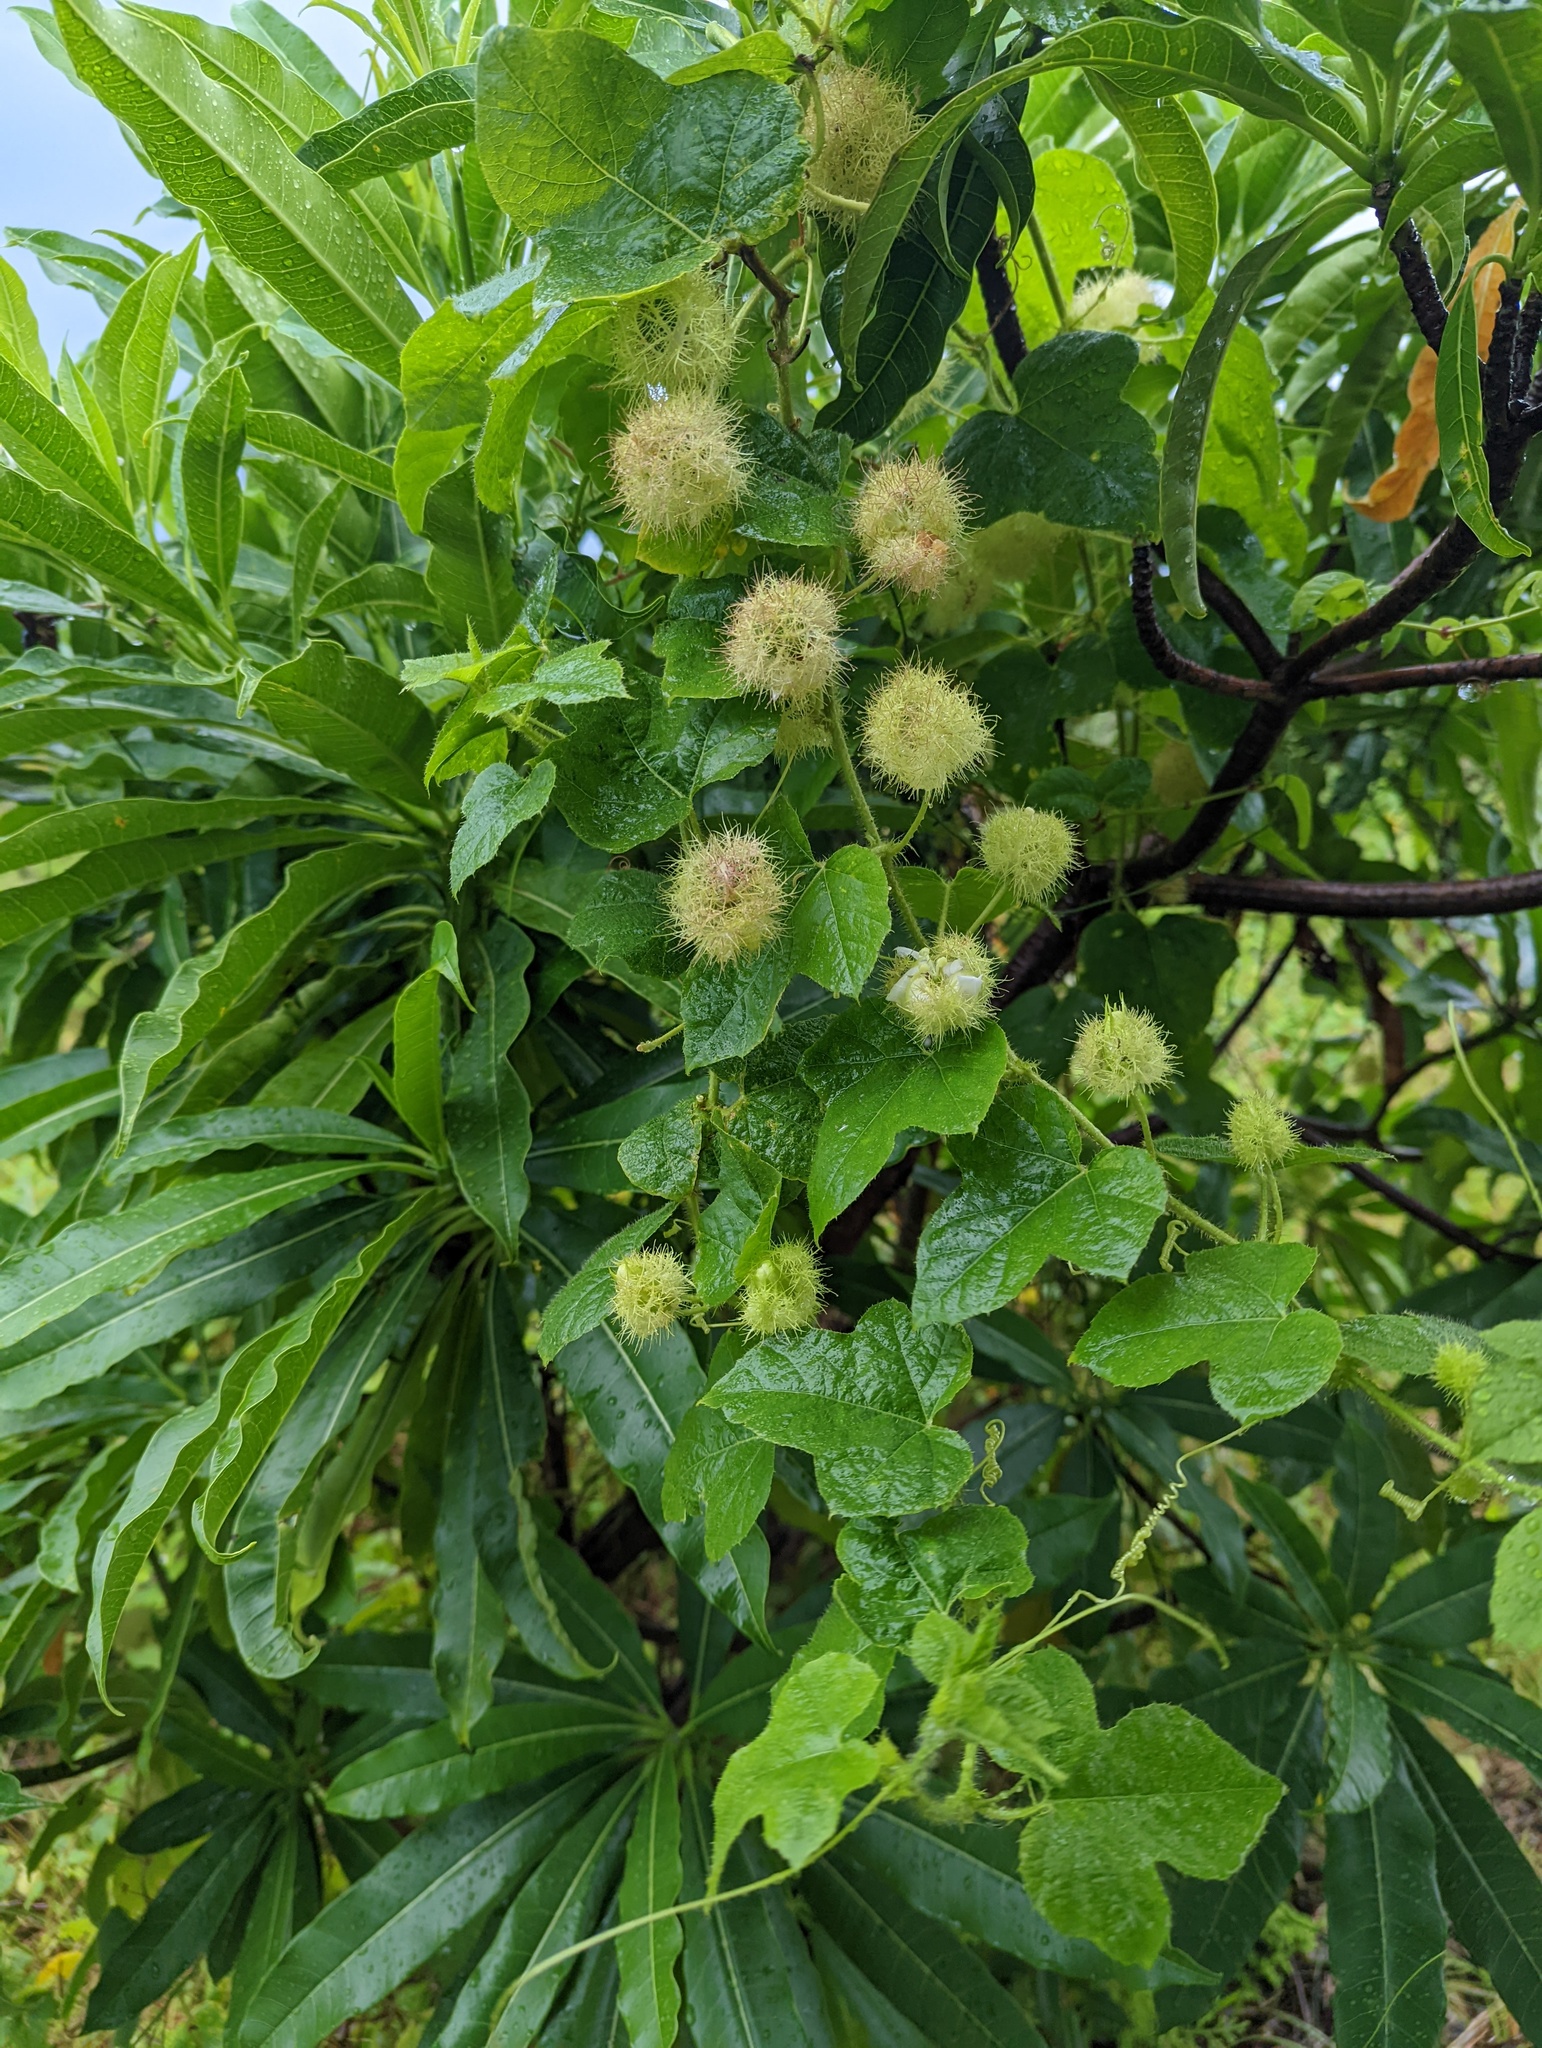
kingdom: Plantae
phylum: Tracheophyta
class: Magnoliopsida
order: Malpighiales
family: Passifloraceae
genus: Passiflora
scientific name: Passiflora vesicaria
